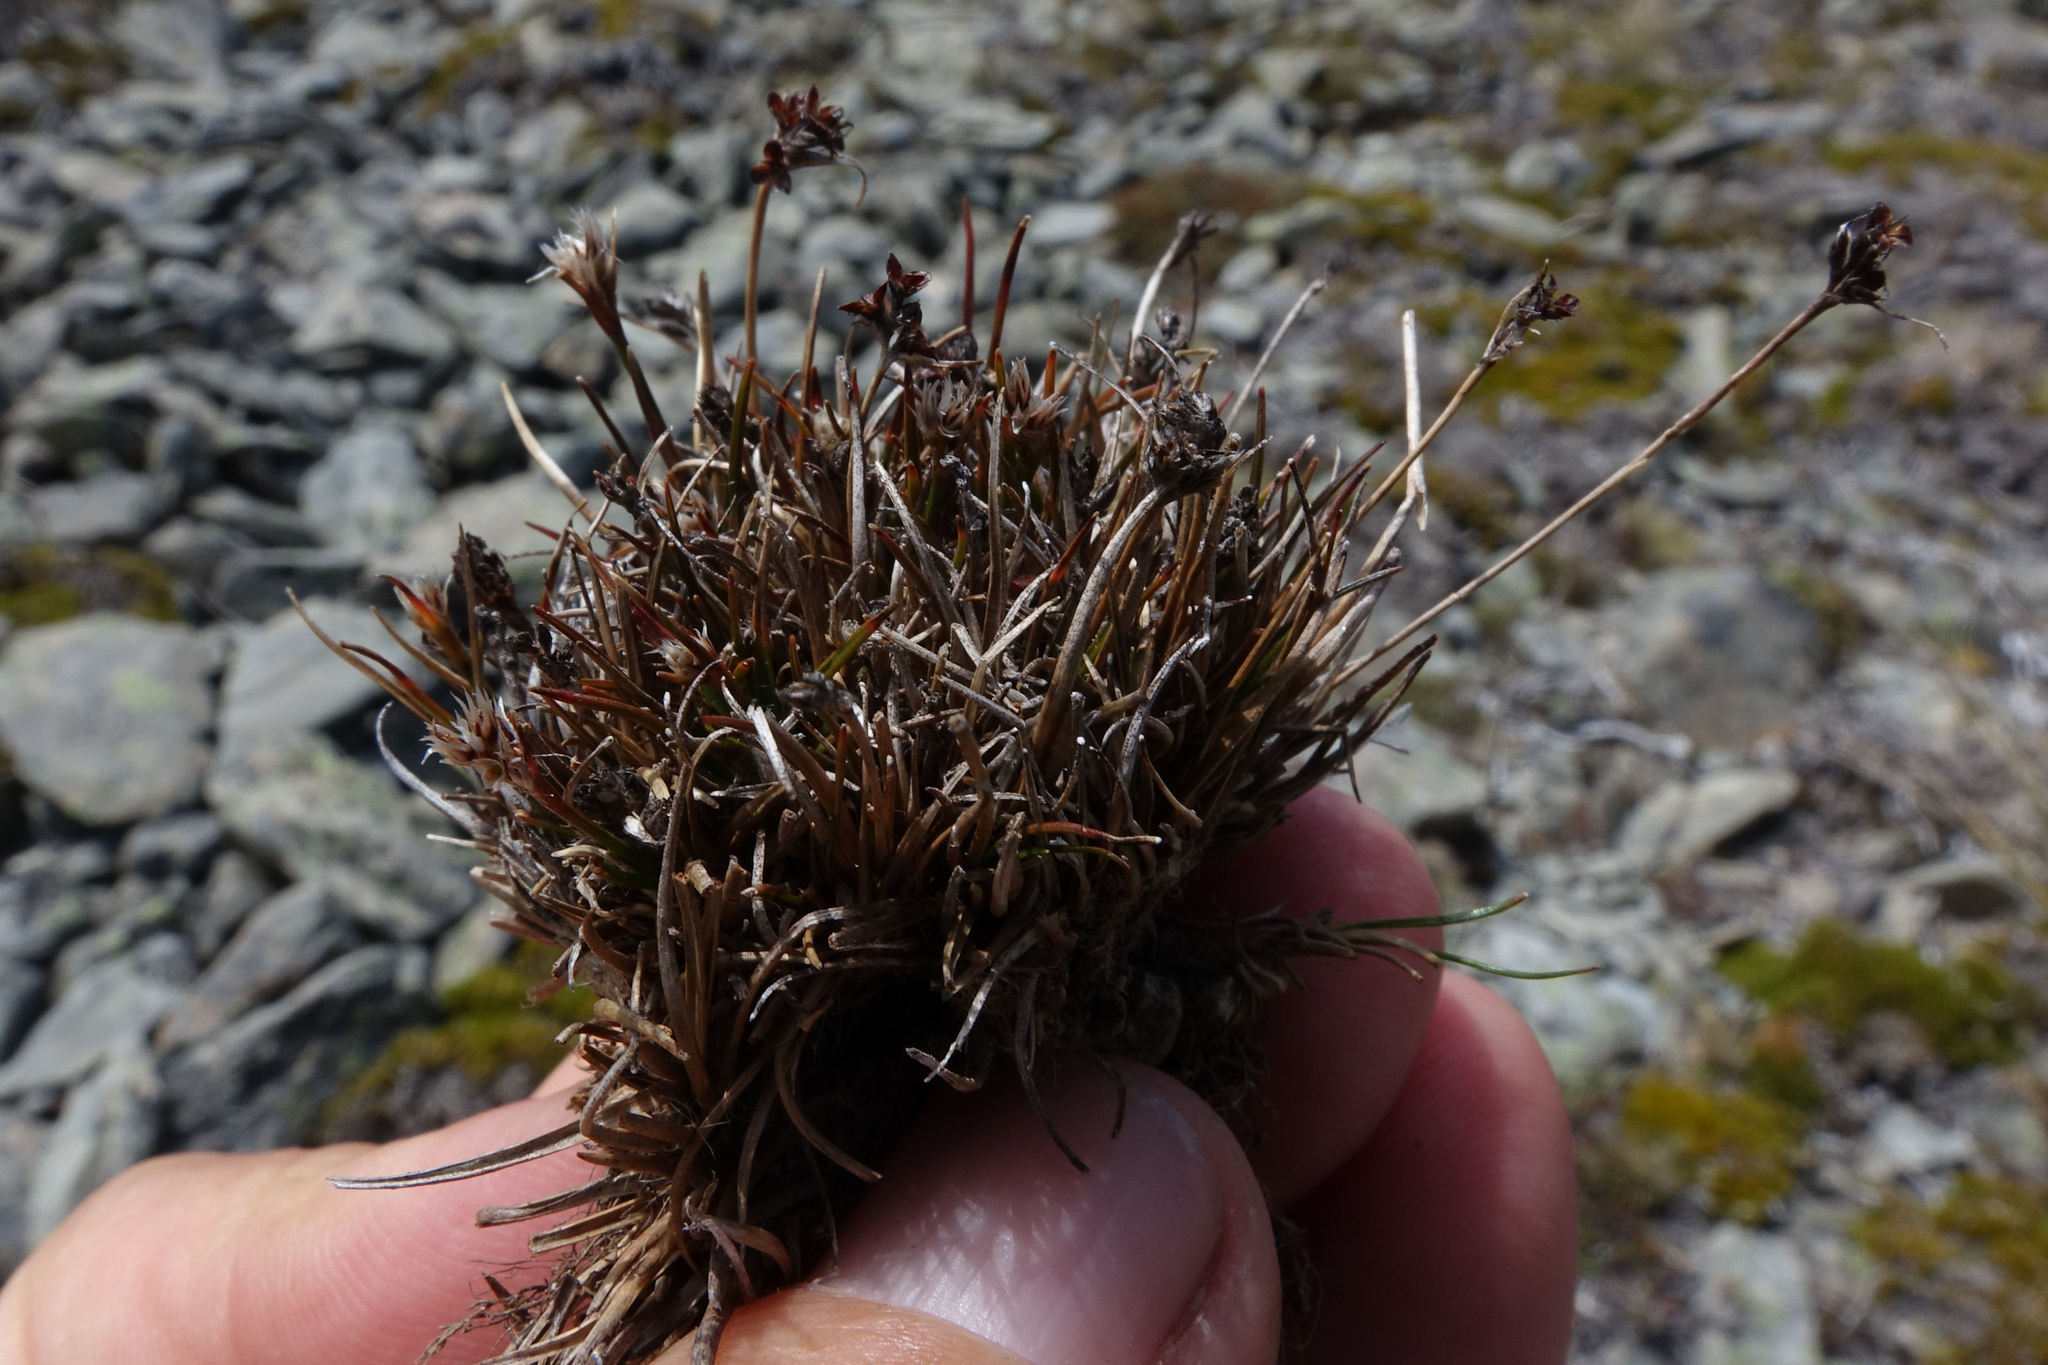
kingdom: Plantae
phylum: Tracheophyta
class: Liliopsida
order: Poales
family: Juncaceae
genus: Luzula
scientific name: Luzula pumila
